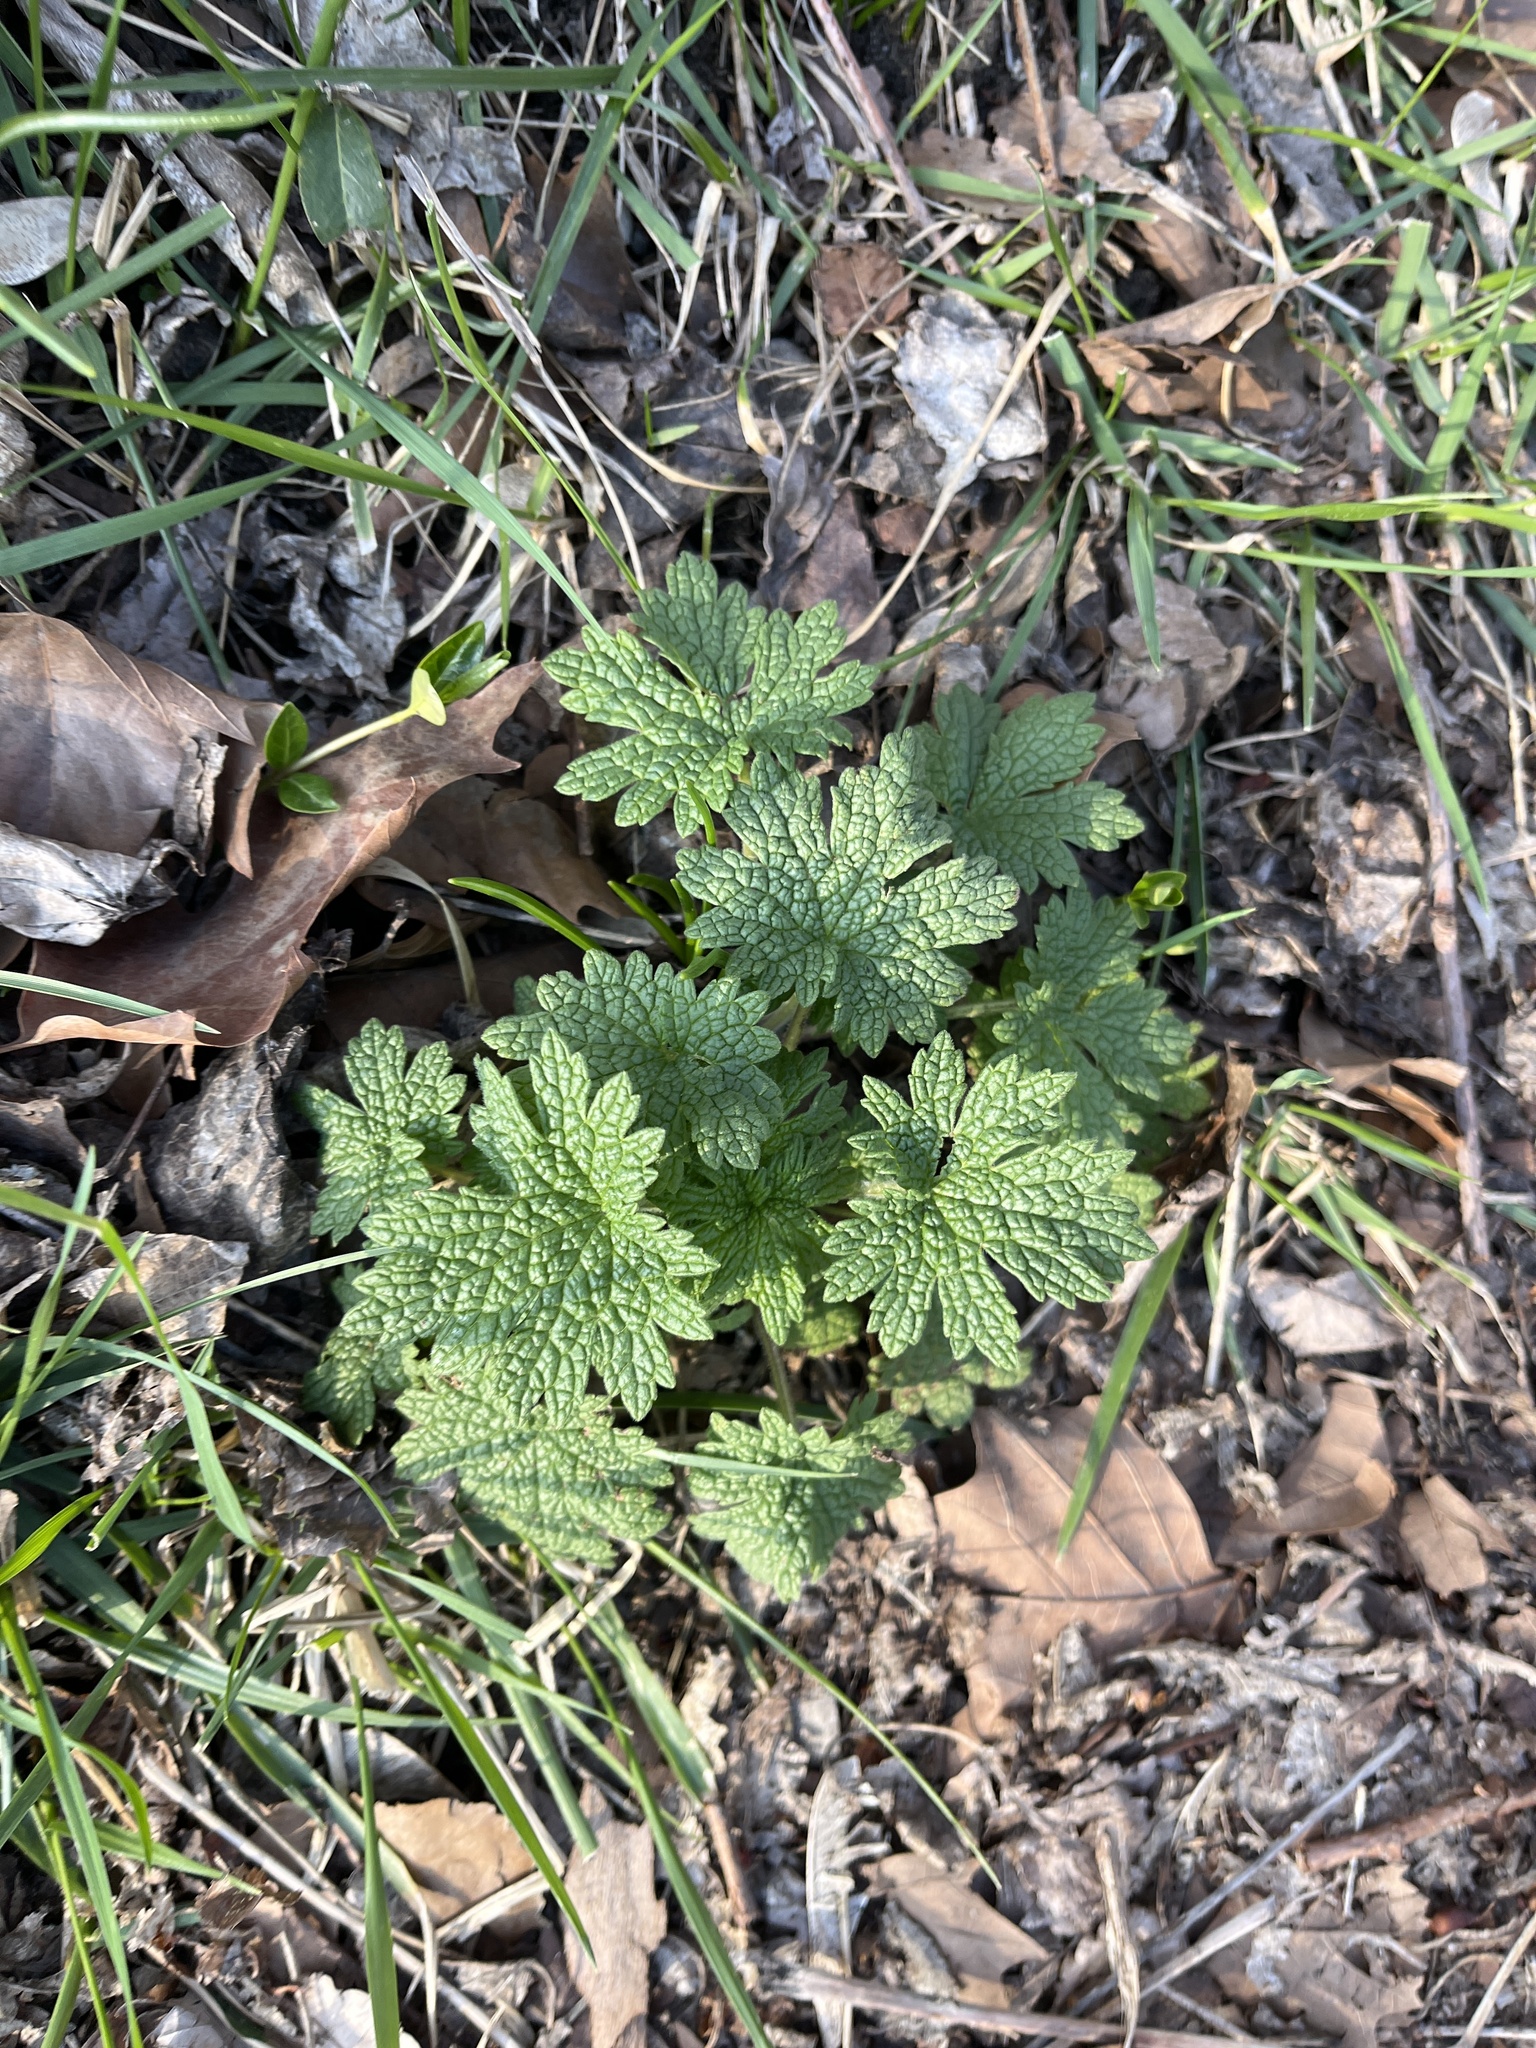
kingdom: Plantae
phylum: Tracheophyta
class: Magnoliopsida
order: Lamiales
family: Lamiaceae
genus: Leonurus
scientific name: Leonurus cardiaca
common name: Motherwort
